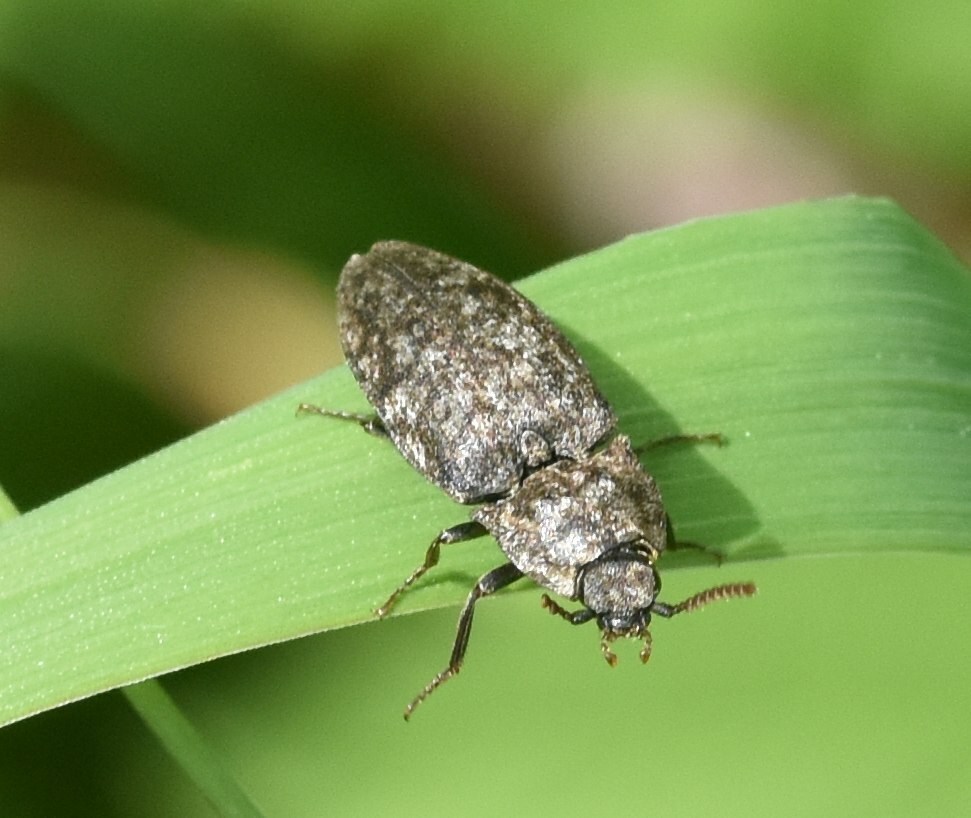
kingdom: Animalia
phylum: Arthropoda
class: Insecta
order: Coleoptera
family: Elateridae
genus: Agrypnus
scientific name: Agrypnus murinus
